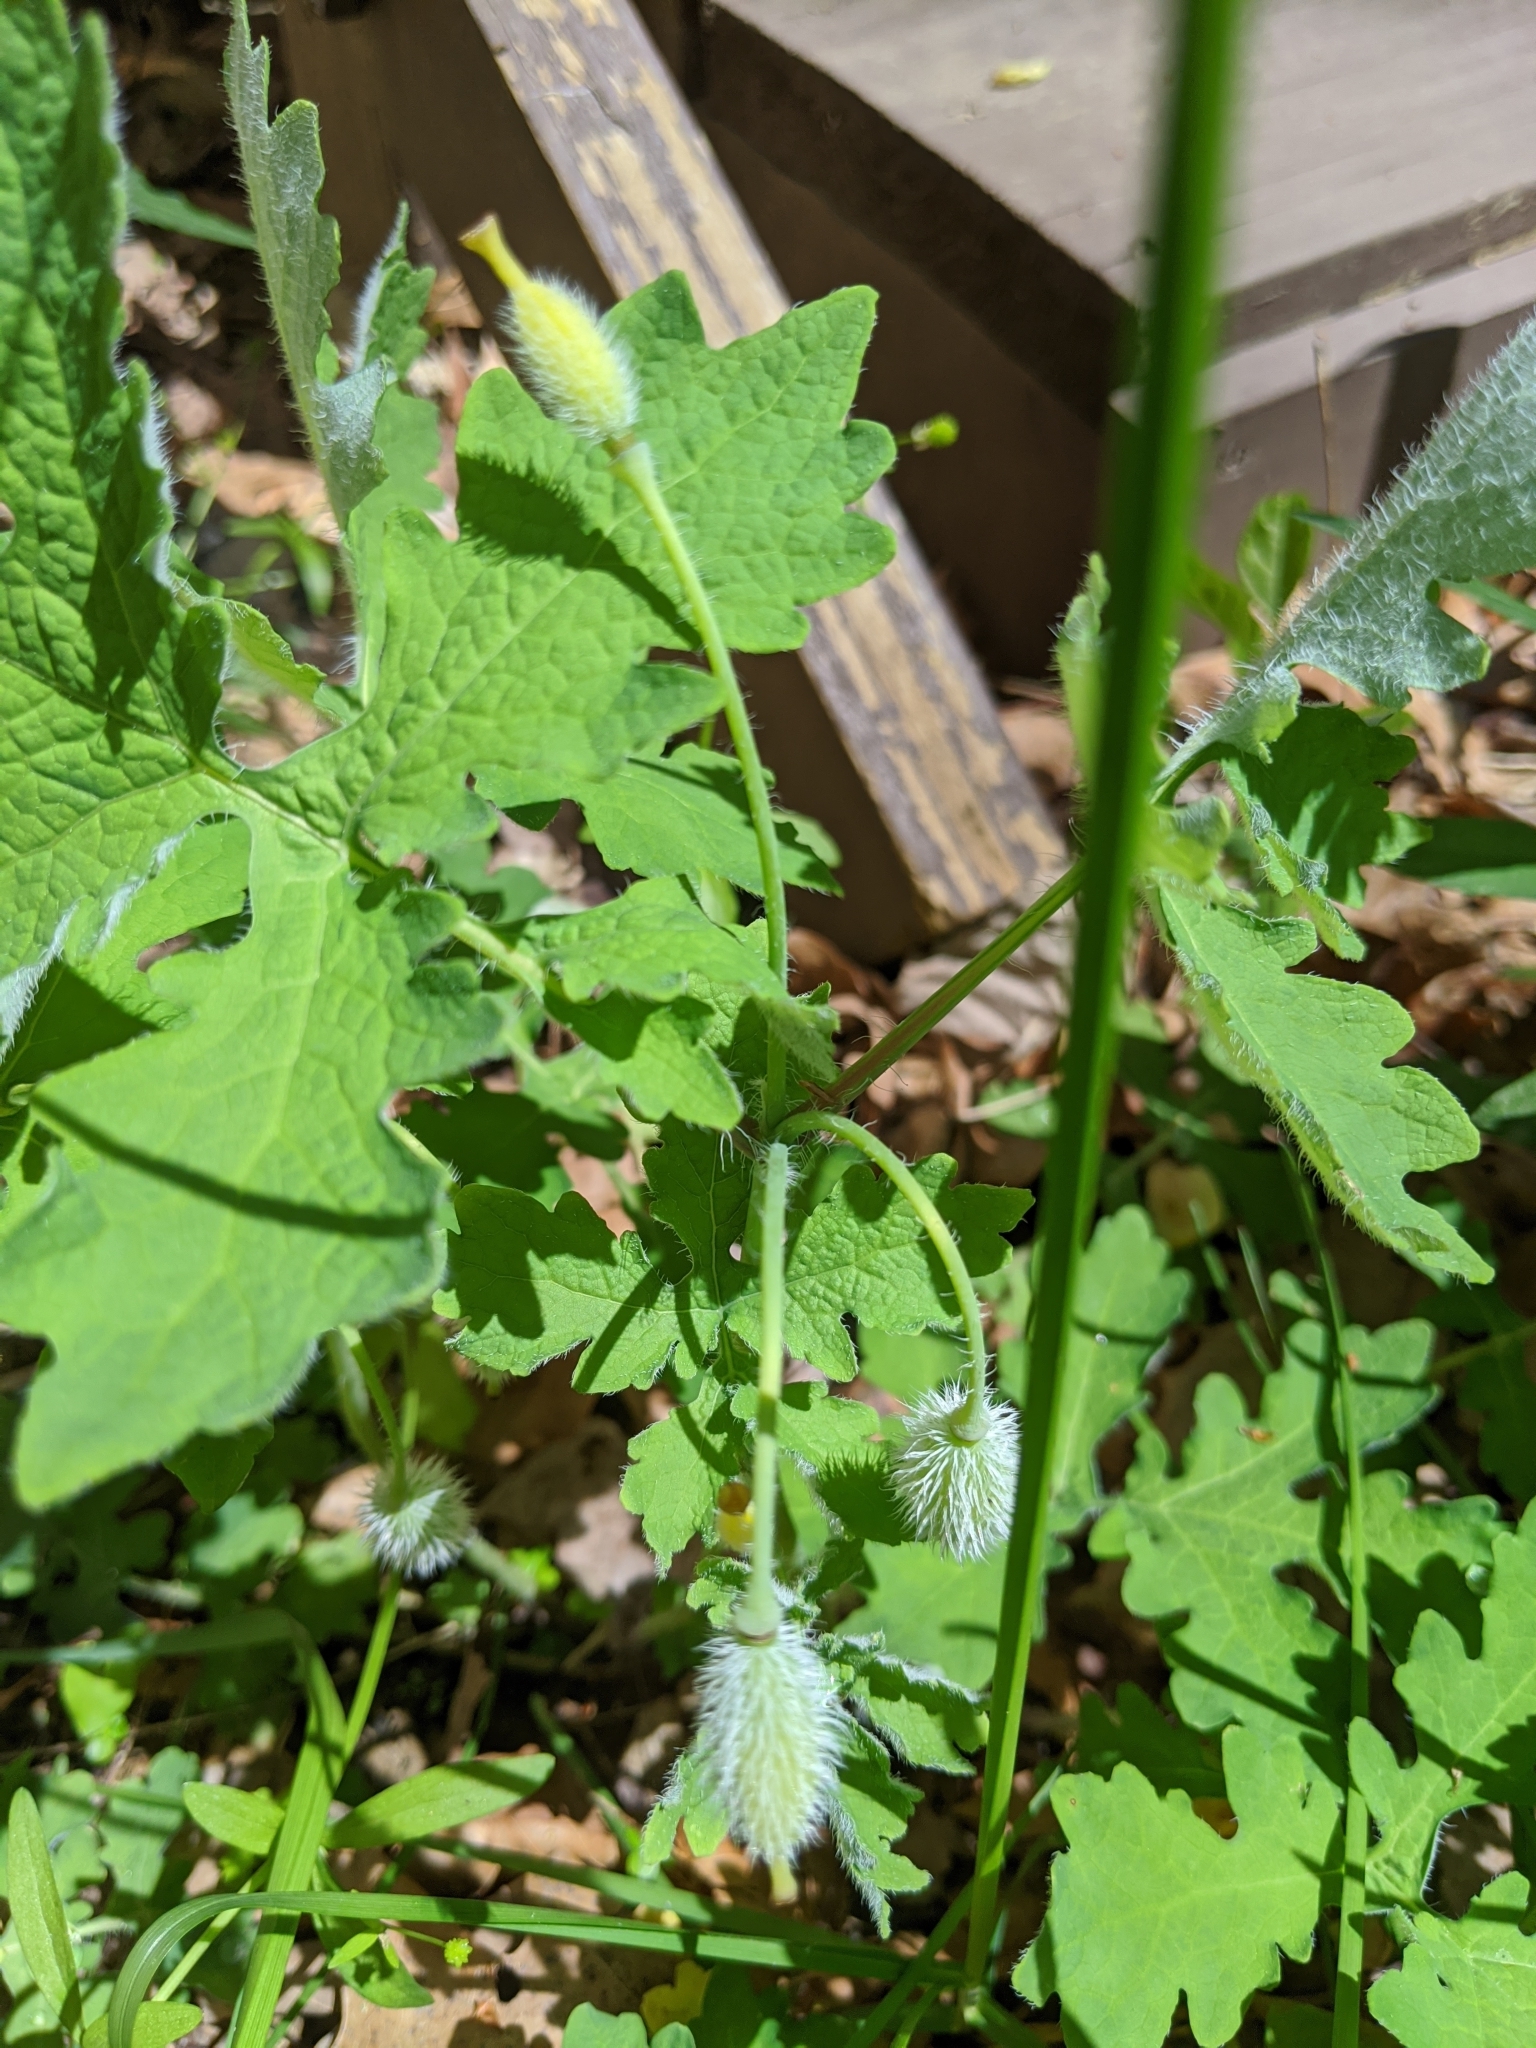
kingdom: Plantae
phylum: Tracheophyta
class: Magnoliopsida
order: Ranunculales
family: Papaveraceae
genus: Stylophorum
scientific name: Stylophorum diphyllum
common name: Celandine poppy
